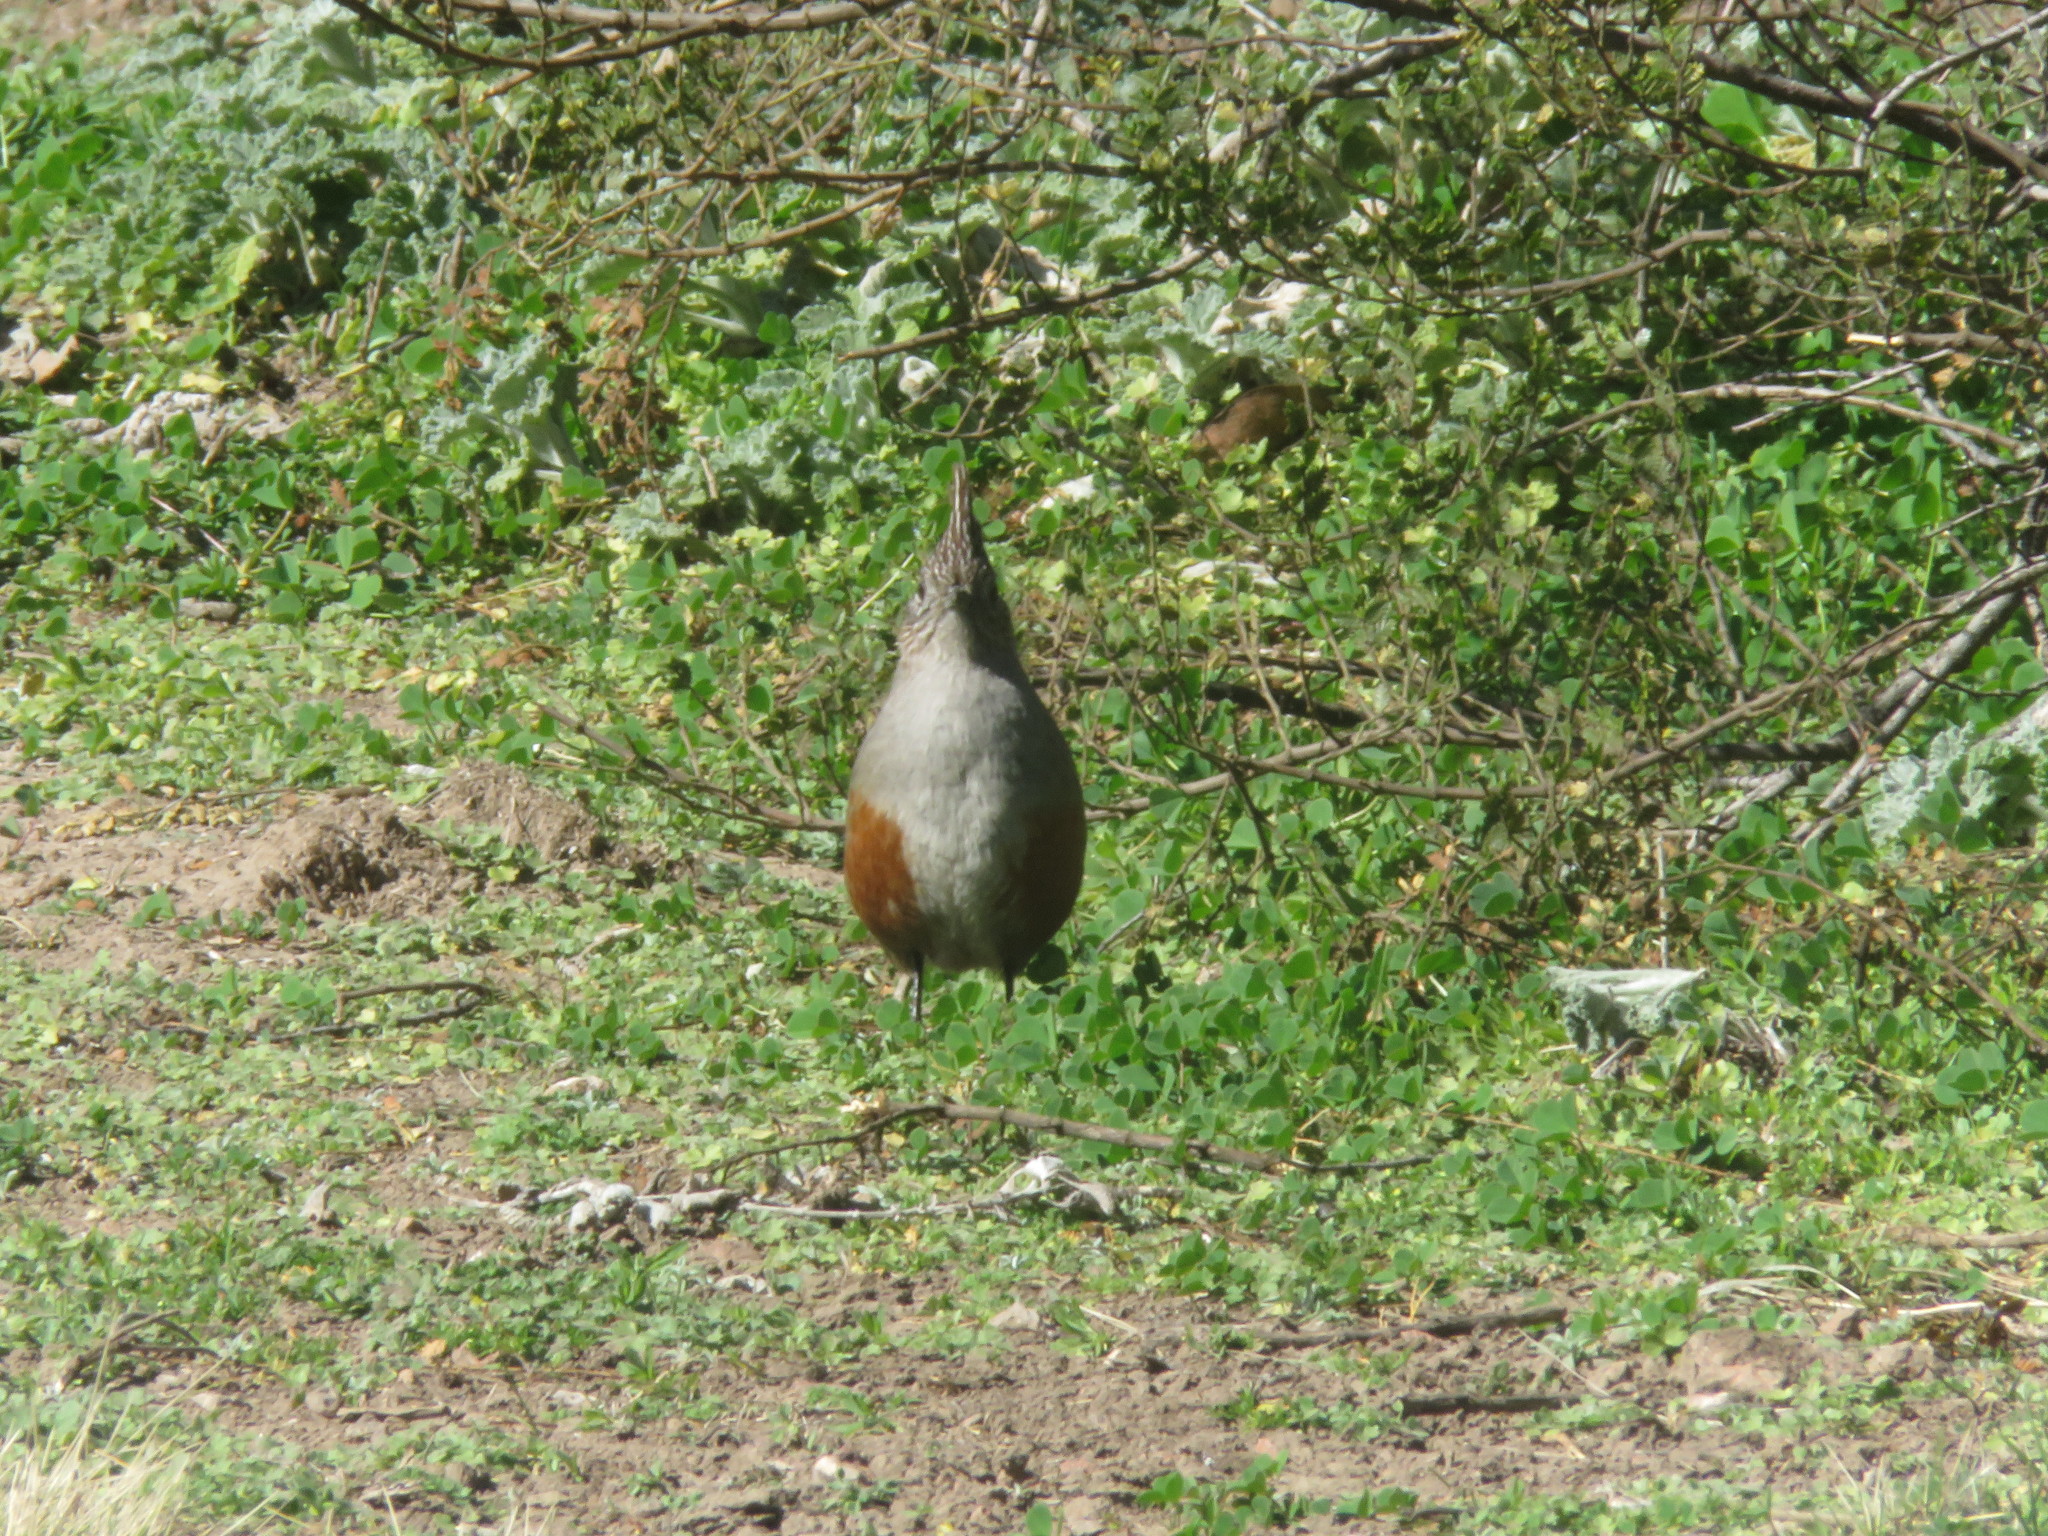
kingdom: Animalia
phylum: Chordata
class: Aves
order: Passeriformes
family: Rhinocryptidae
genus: Rhinocrypta
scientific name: Rhinocrypta lanceolata
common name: Crested gallito
